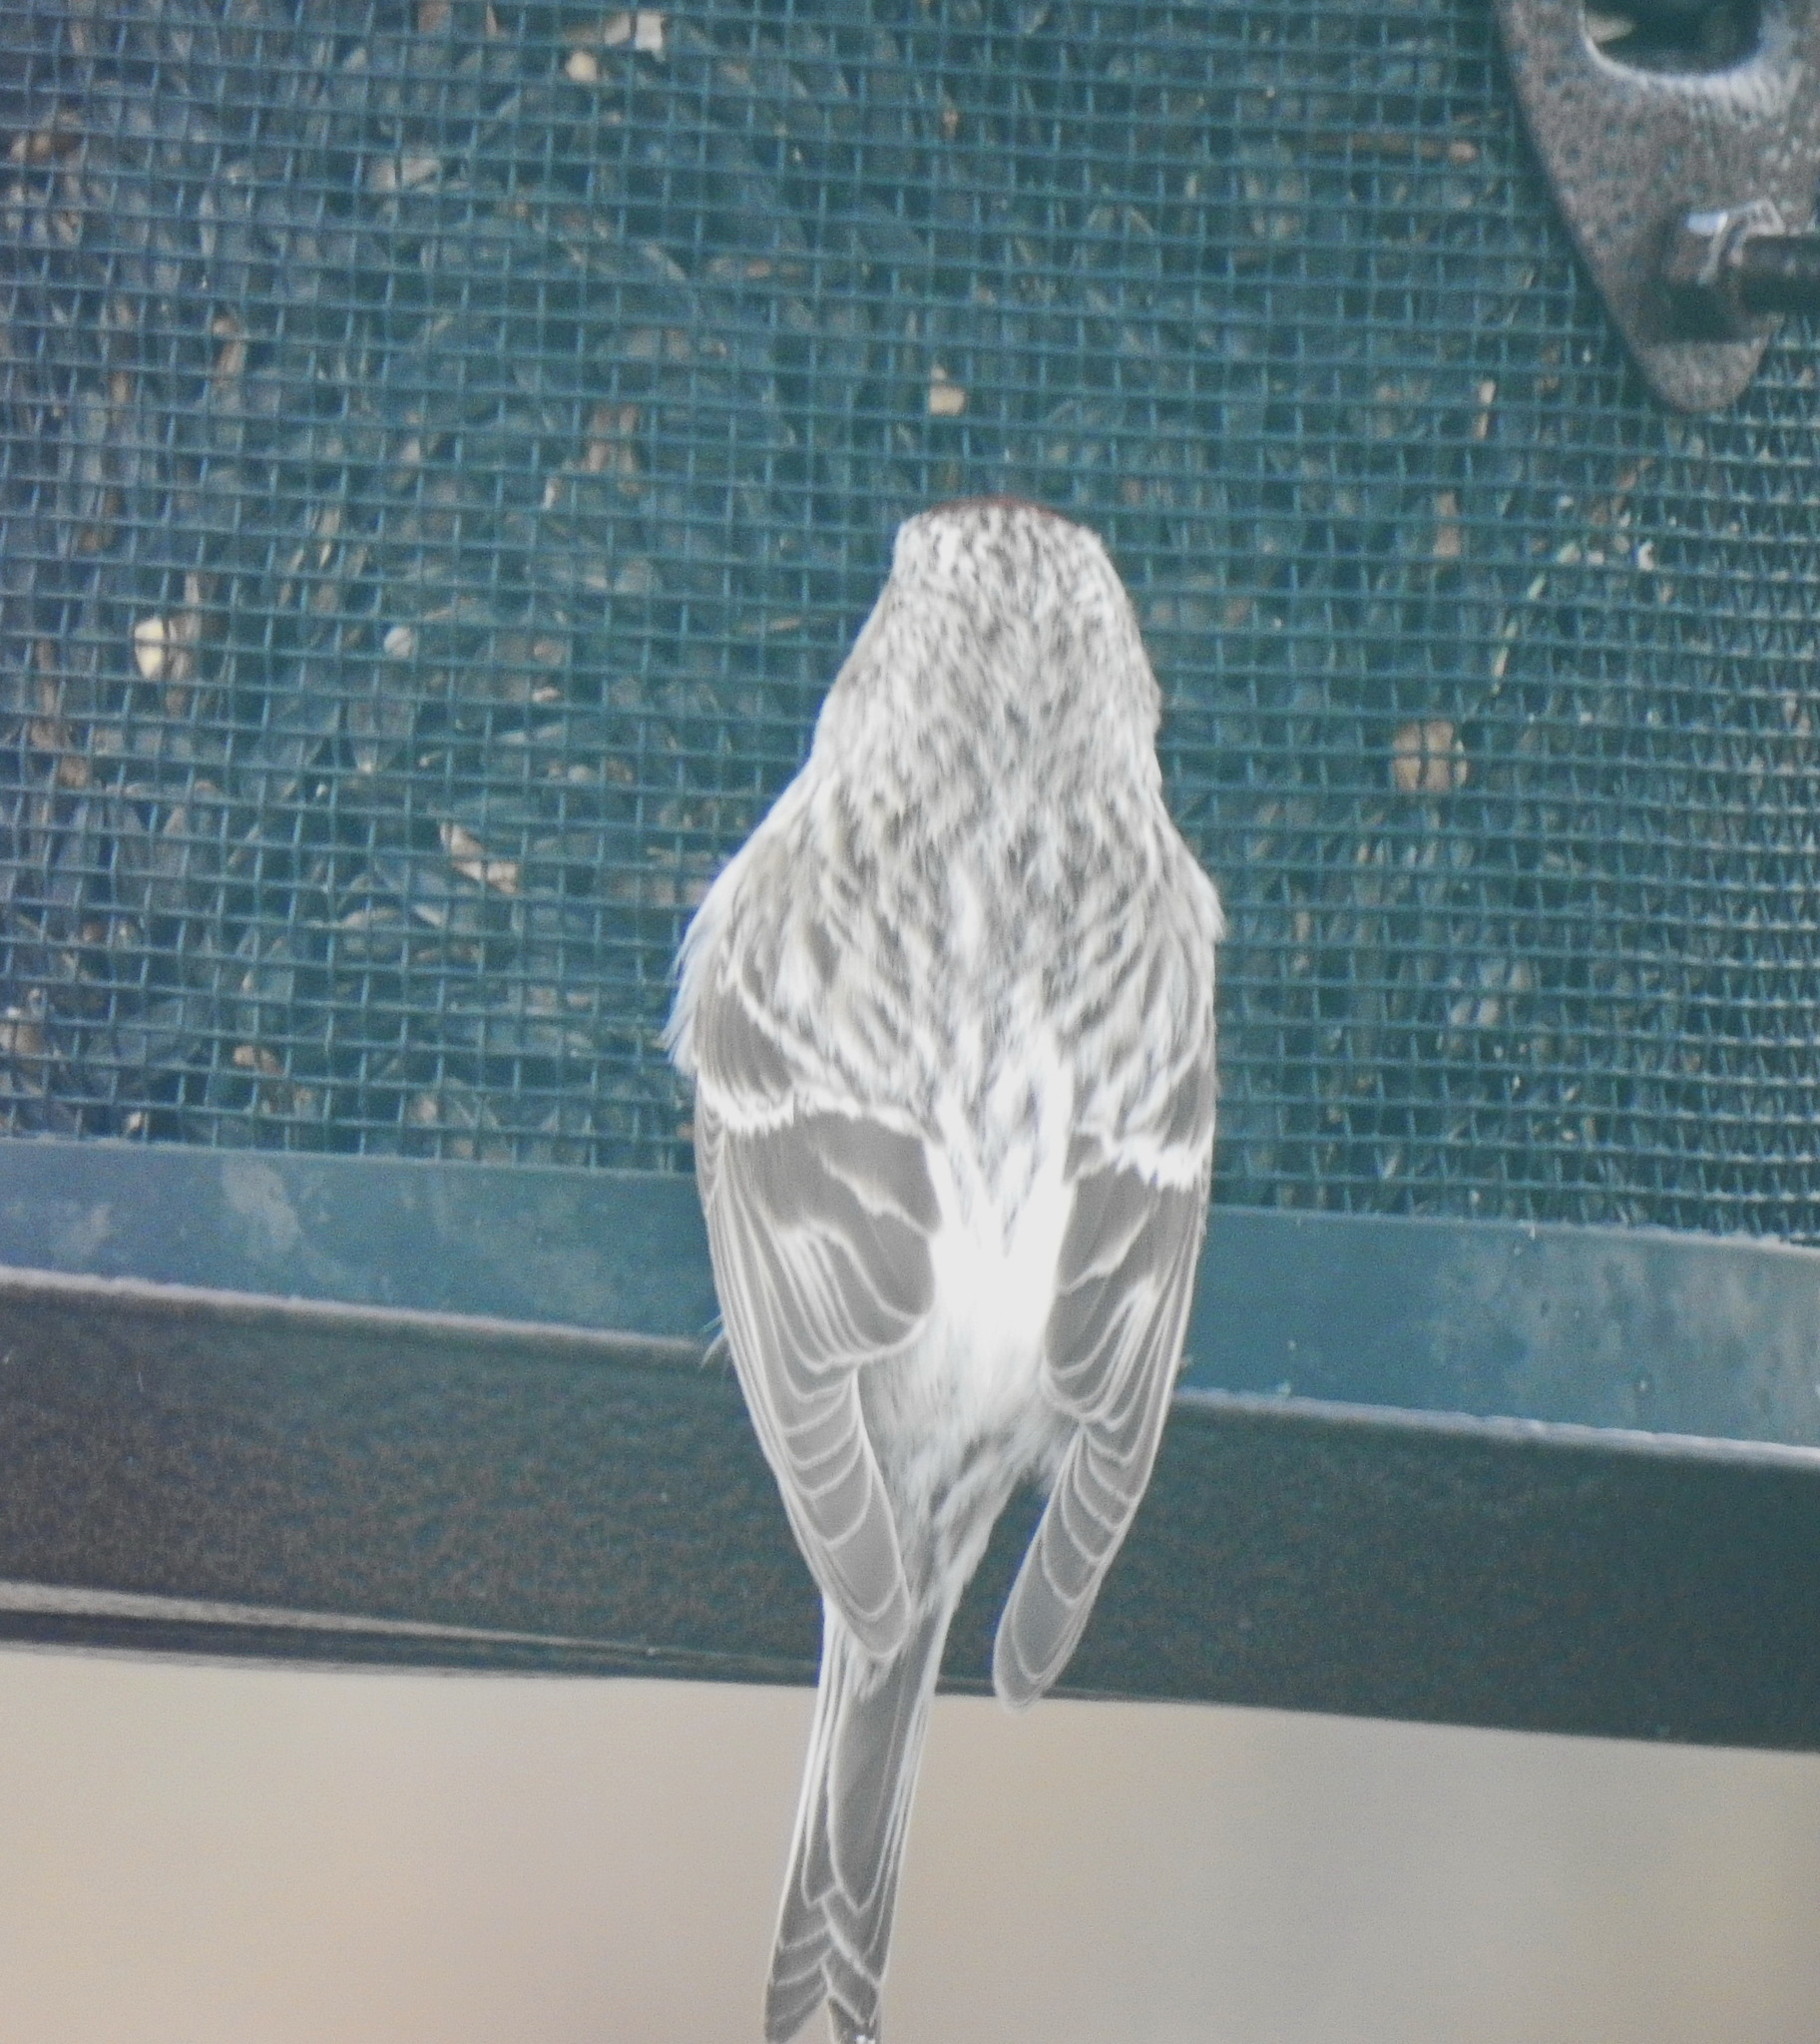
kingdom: Animalia
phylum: Chordata
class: Aves
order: Passeriformes
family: Fringillidae
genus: Acanthis
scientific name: Acanthis hornemanni
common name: Arctic redpoll
